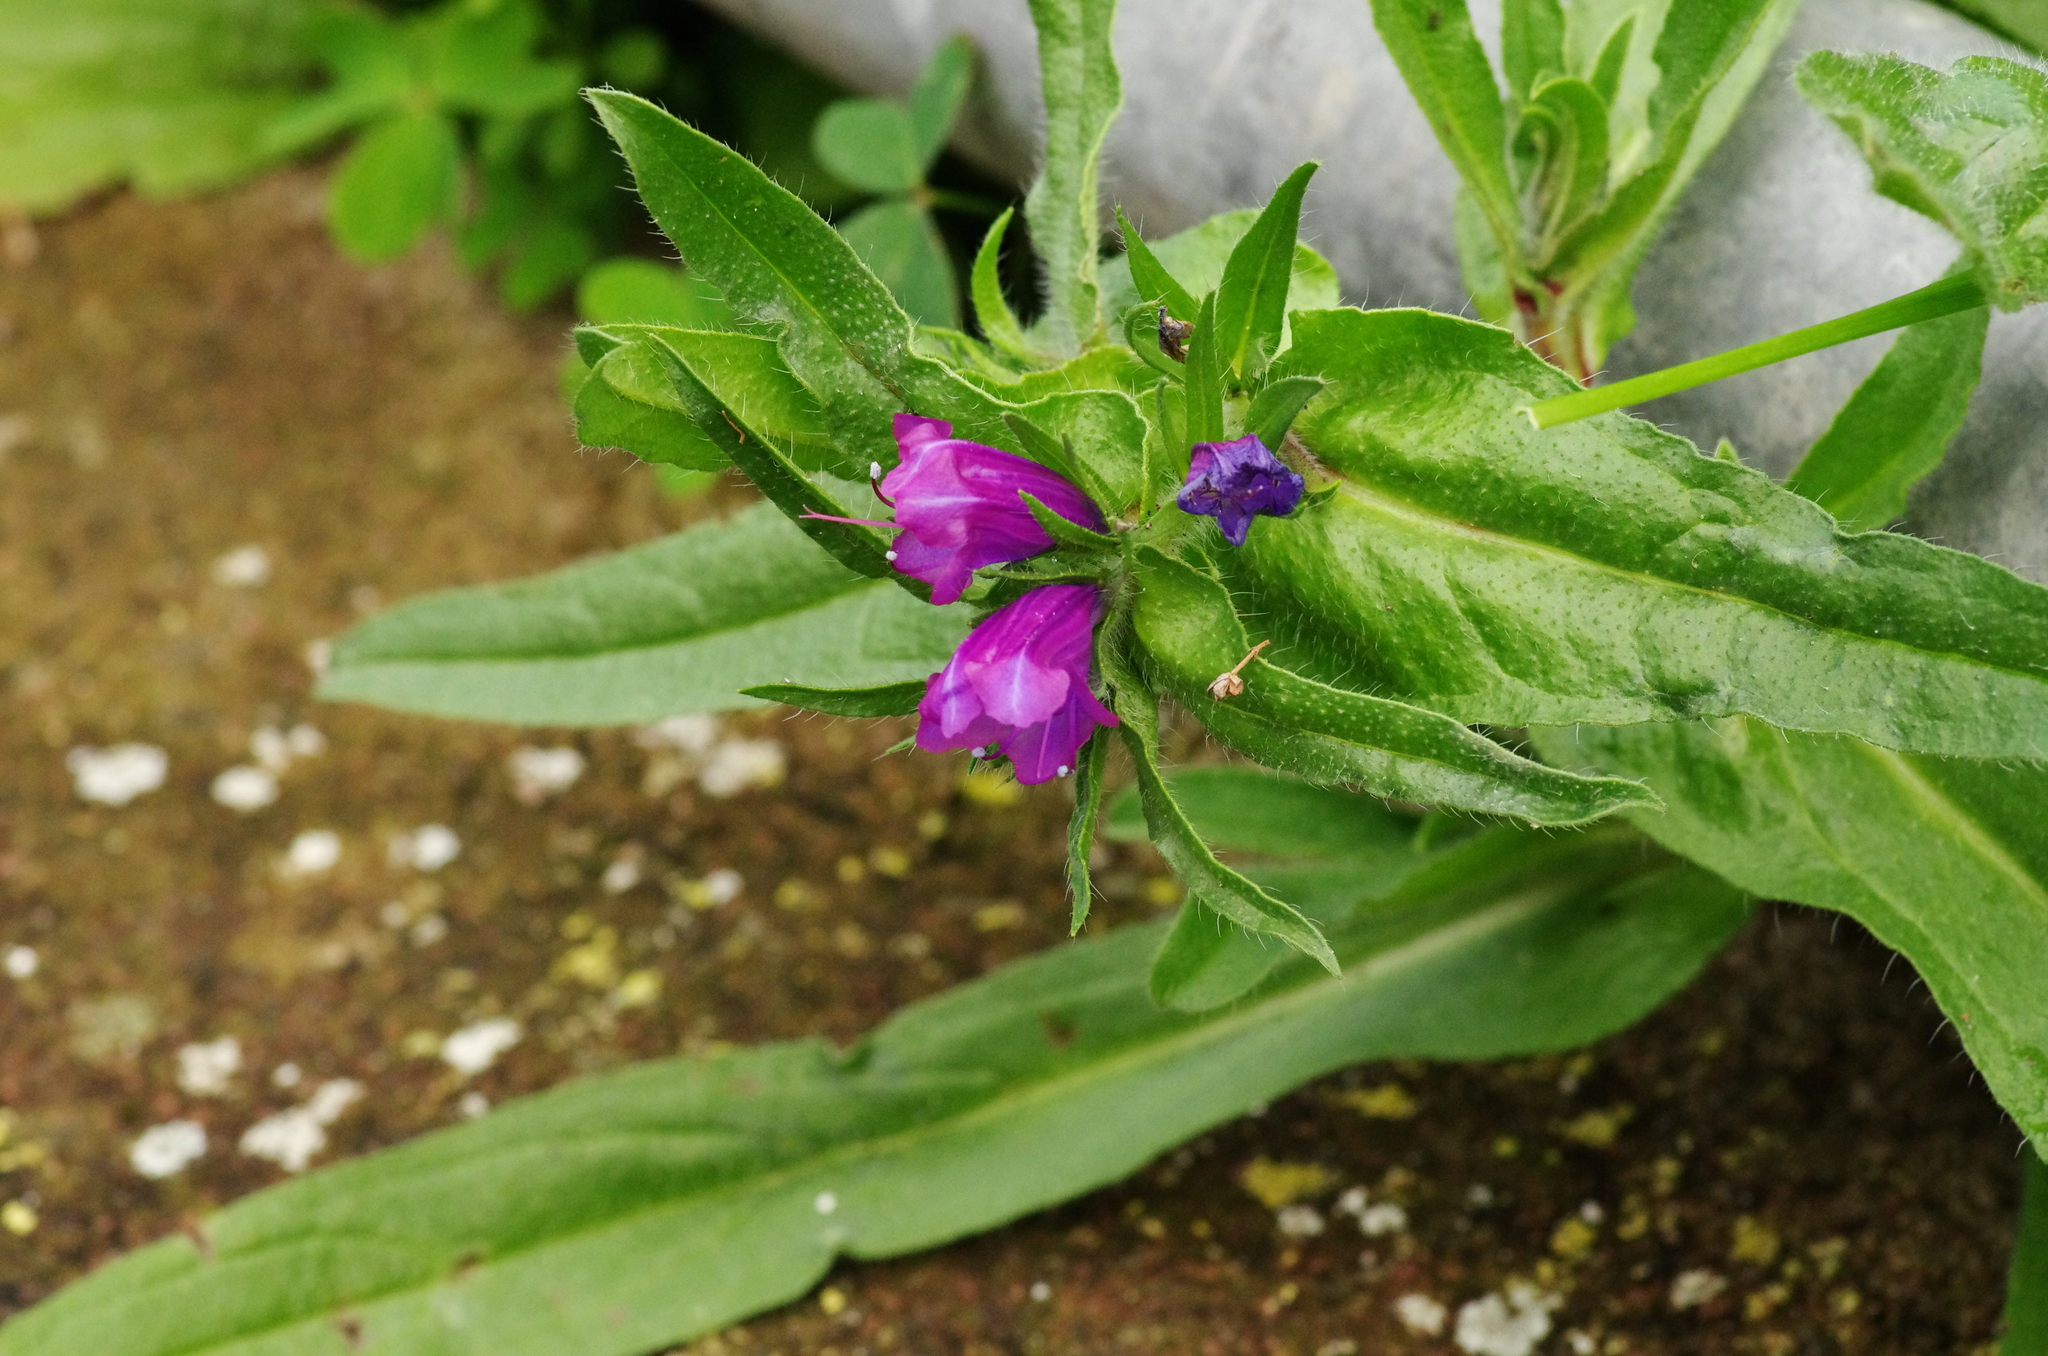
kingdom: Plantae
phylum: Tracheophyta
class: Magnoliopsida
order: Boraginales
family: Boraginaceae
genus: Echium
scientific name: Echium plantagineum
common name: Purple viper's-bugloss
